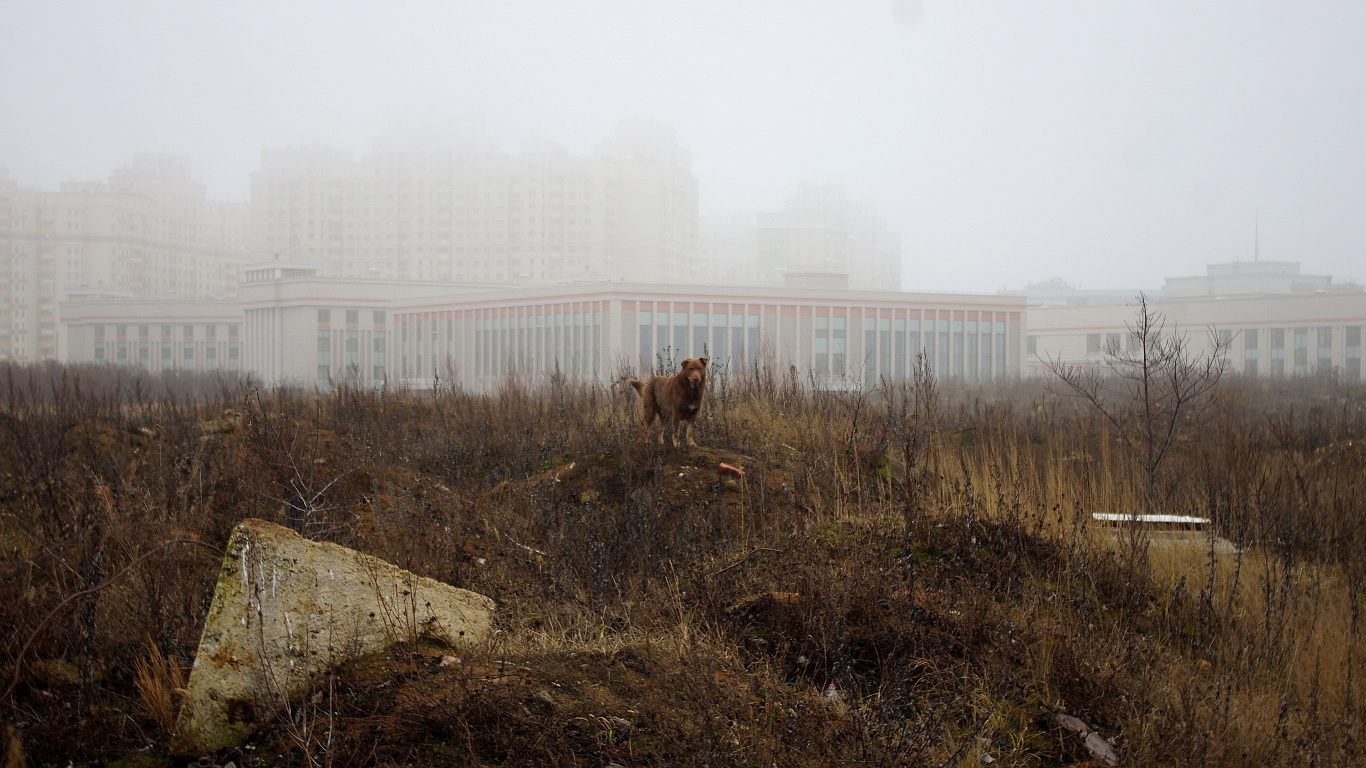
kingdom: Animalia
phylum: Chordata
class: Mammalia
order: Carnivora
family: Canidae
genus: Canis
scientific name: Canis lupus
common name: Gray wolf
